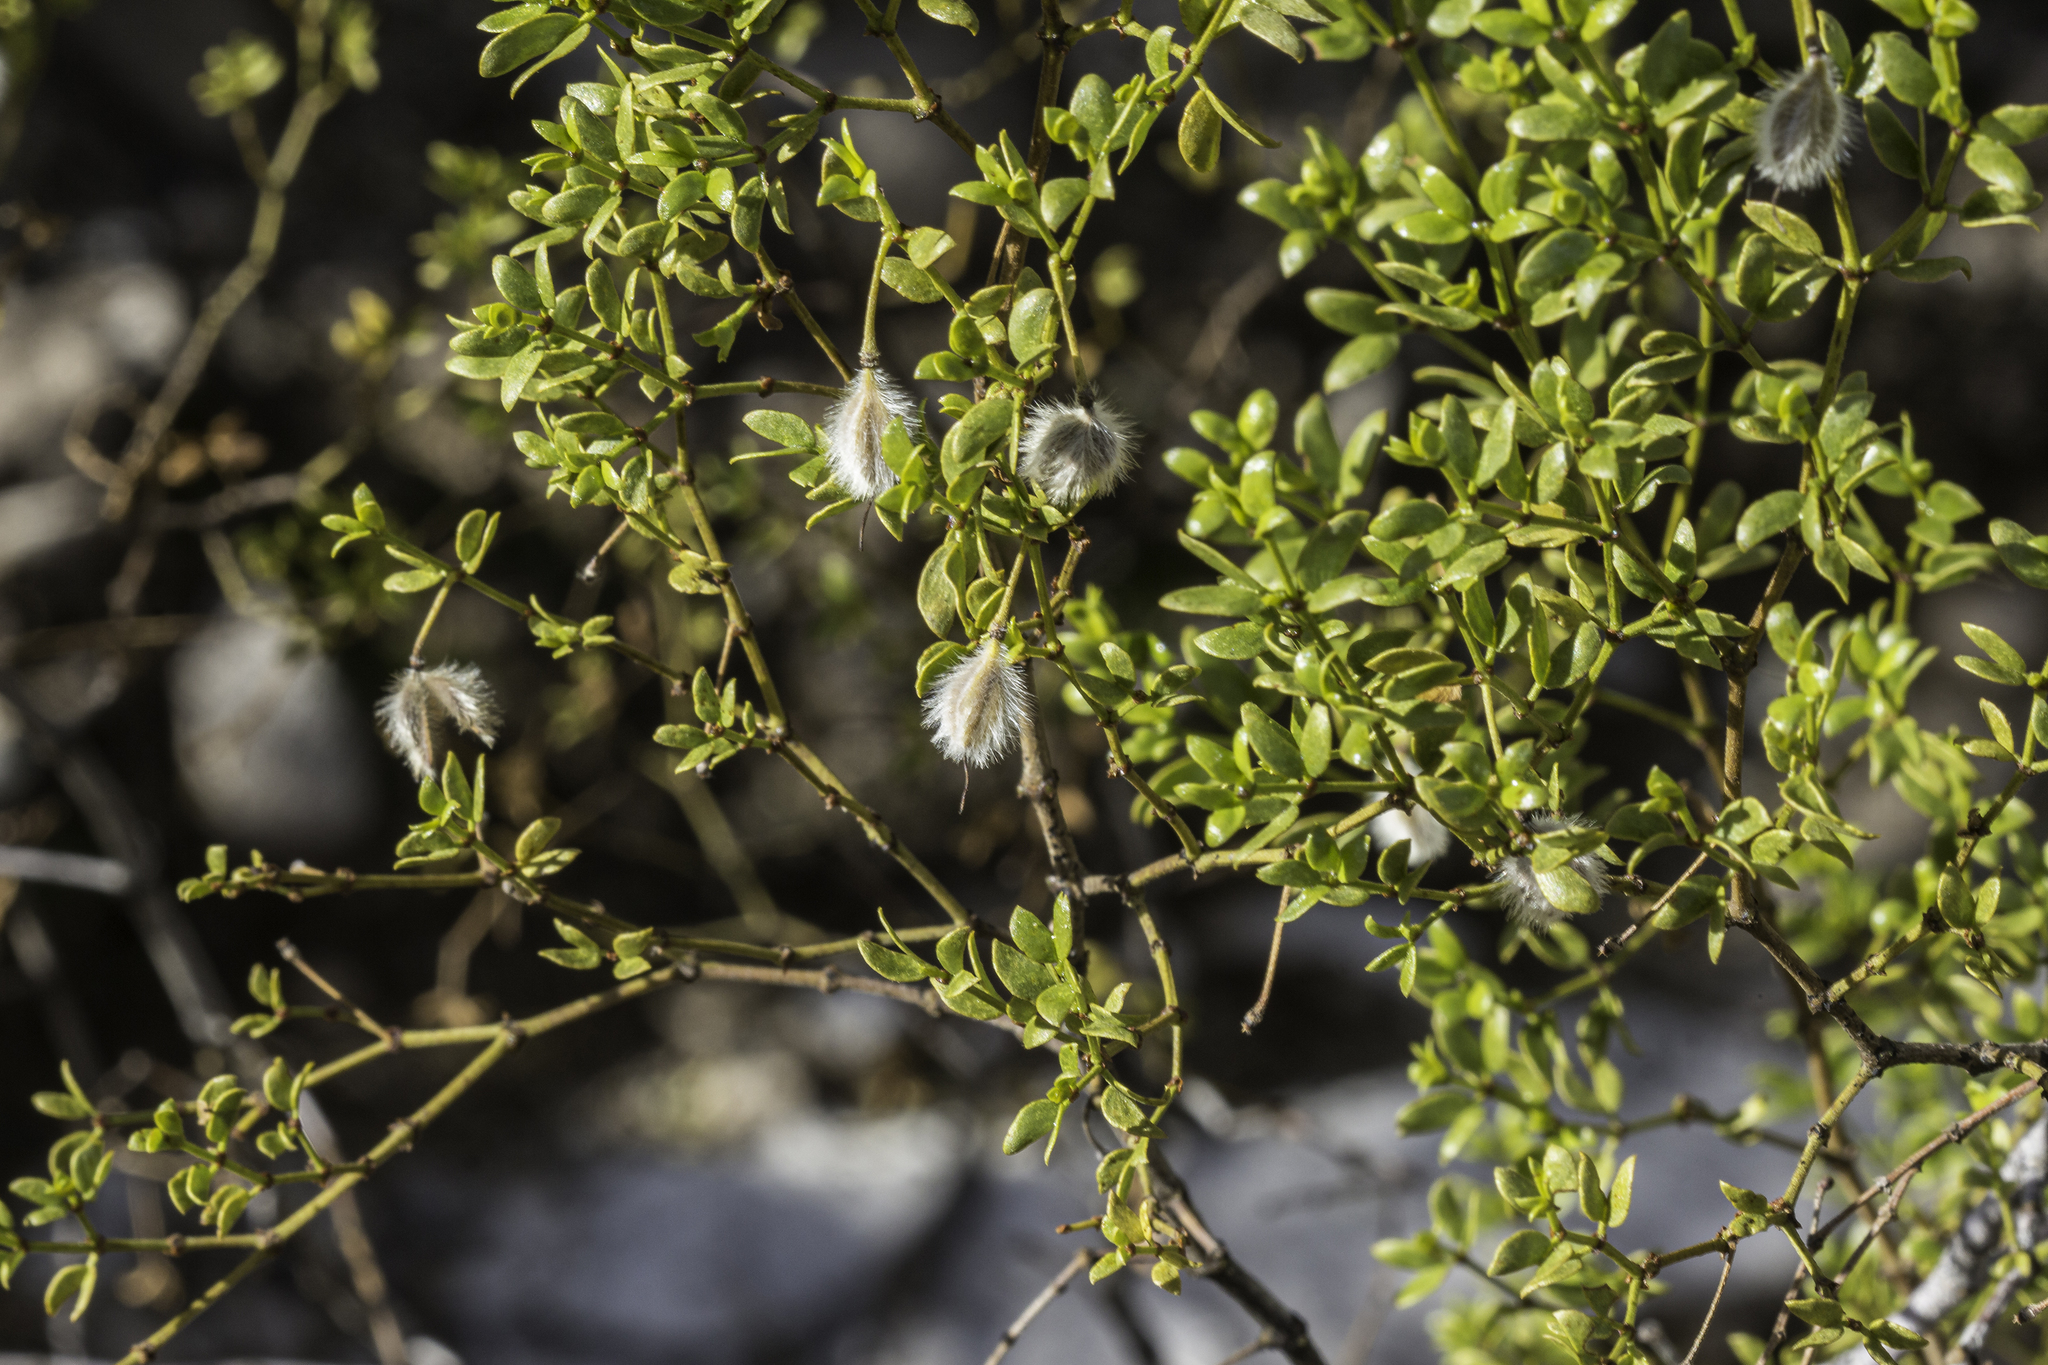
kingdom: Plantae
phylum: Tracheophyta
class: Magnoliopsida
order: Zygophyllales
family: Zygophyllaceae
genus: Larrea
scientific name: Larrea tridentata
